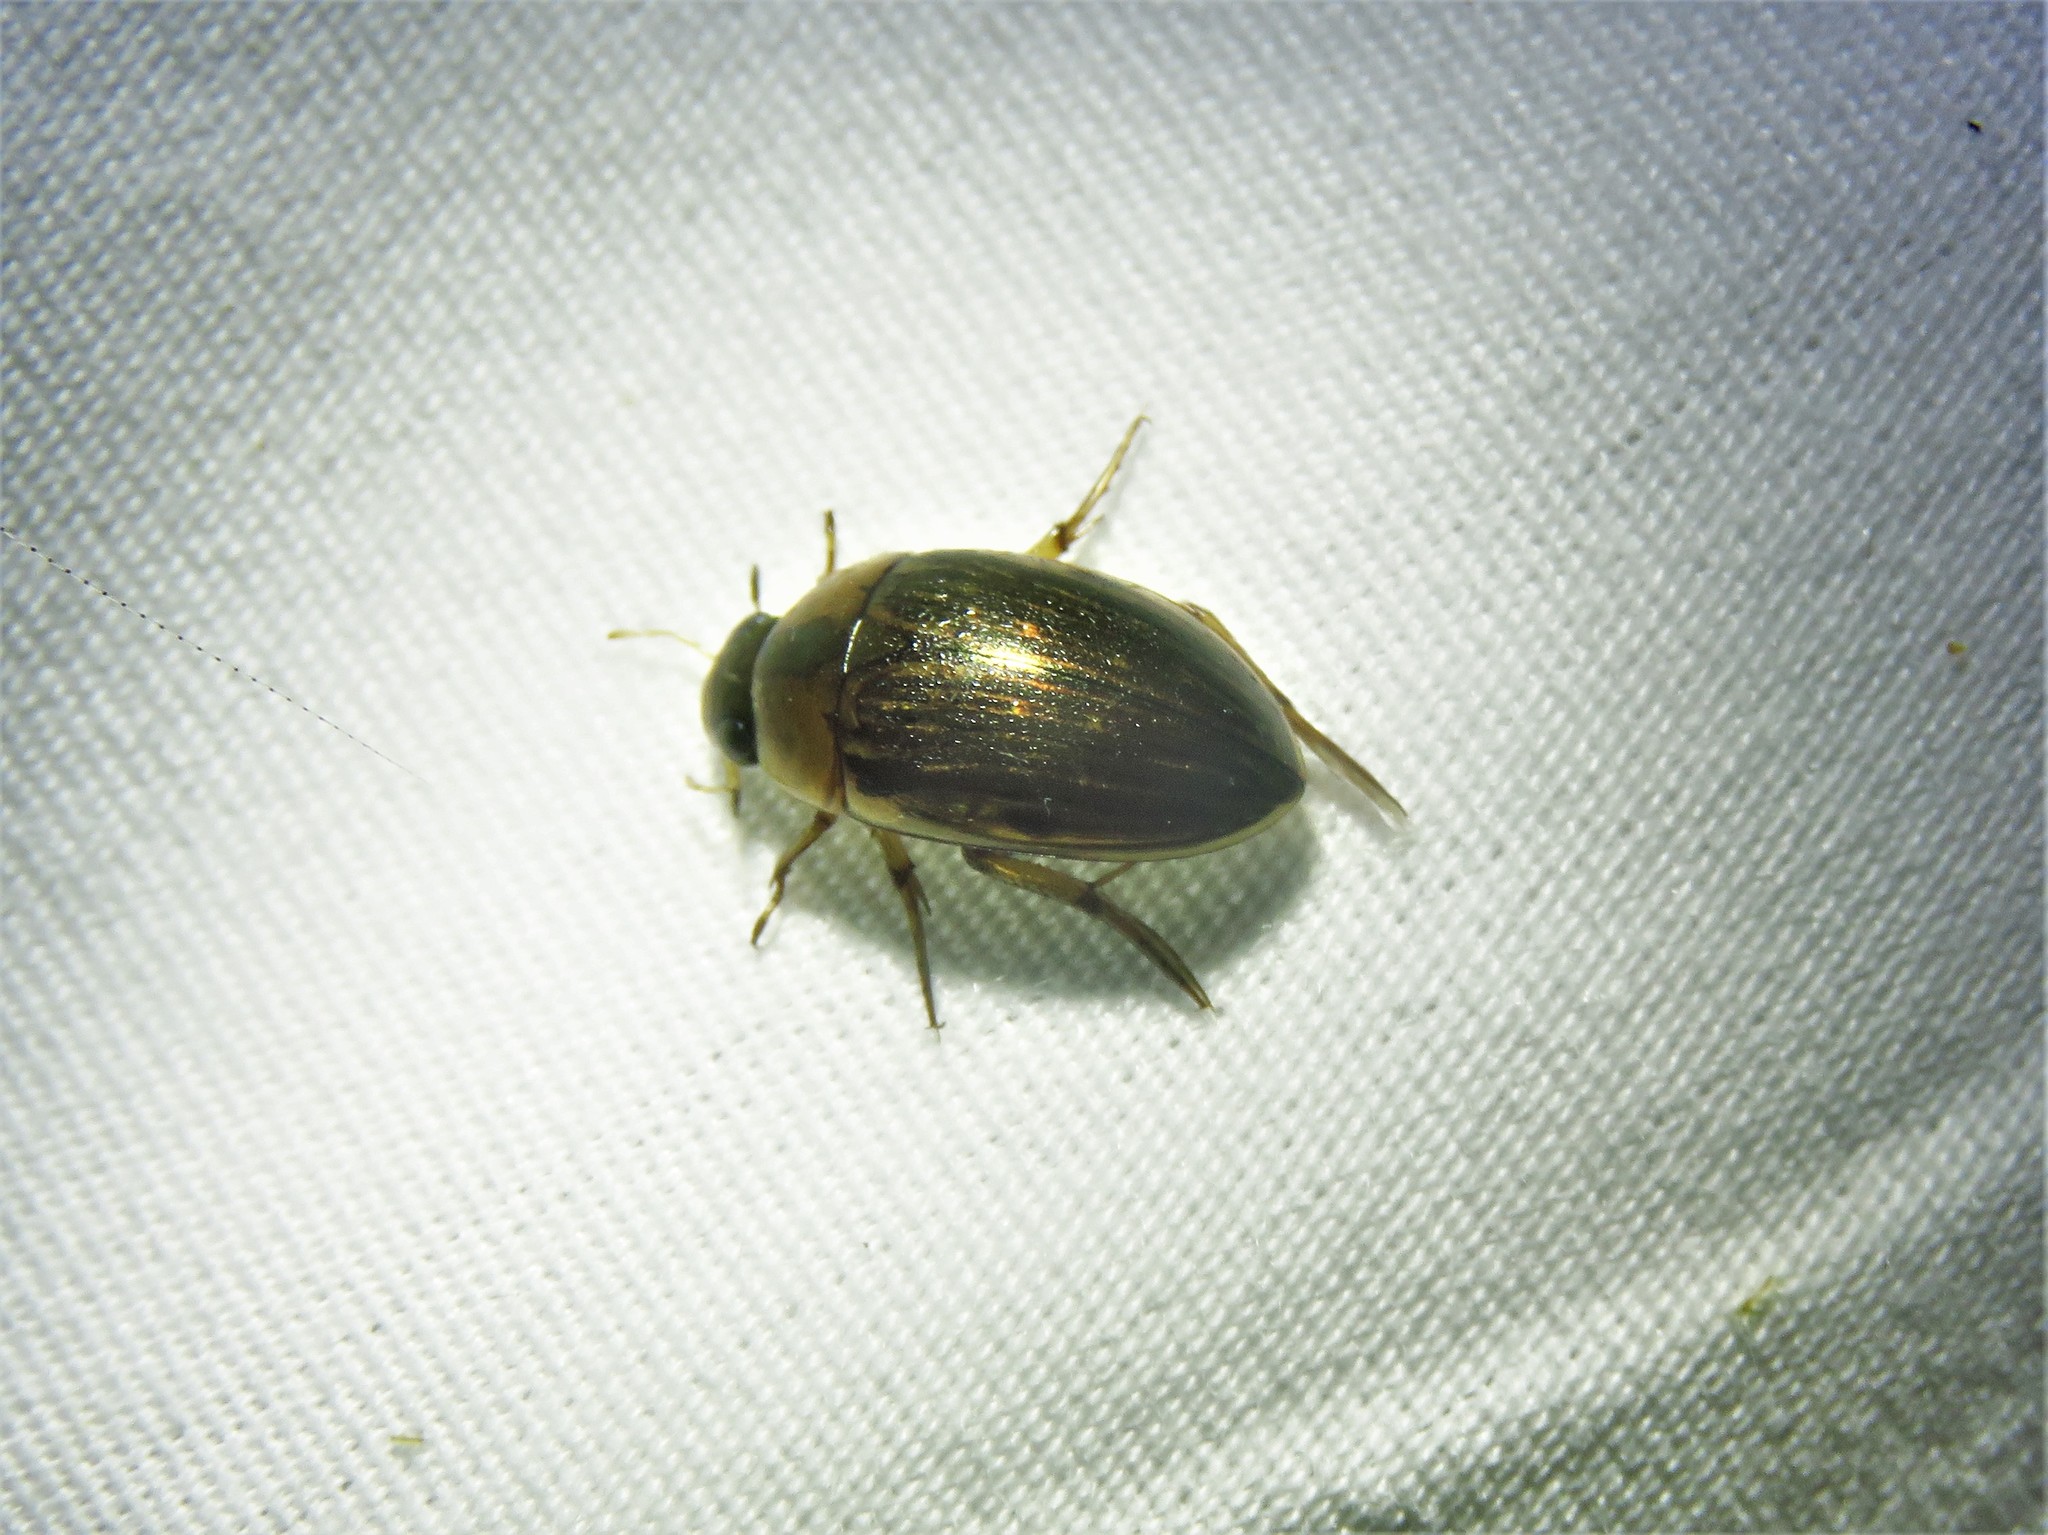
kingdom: Animalia
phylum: Arthropoda
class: Insecta
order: Coleoptera
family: Hydrophilidae
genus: Tropisternus
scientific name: Tropisternus collaris
